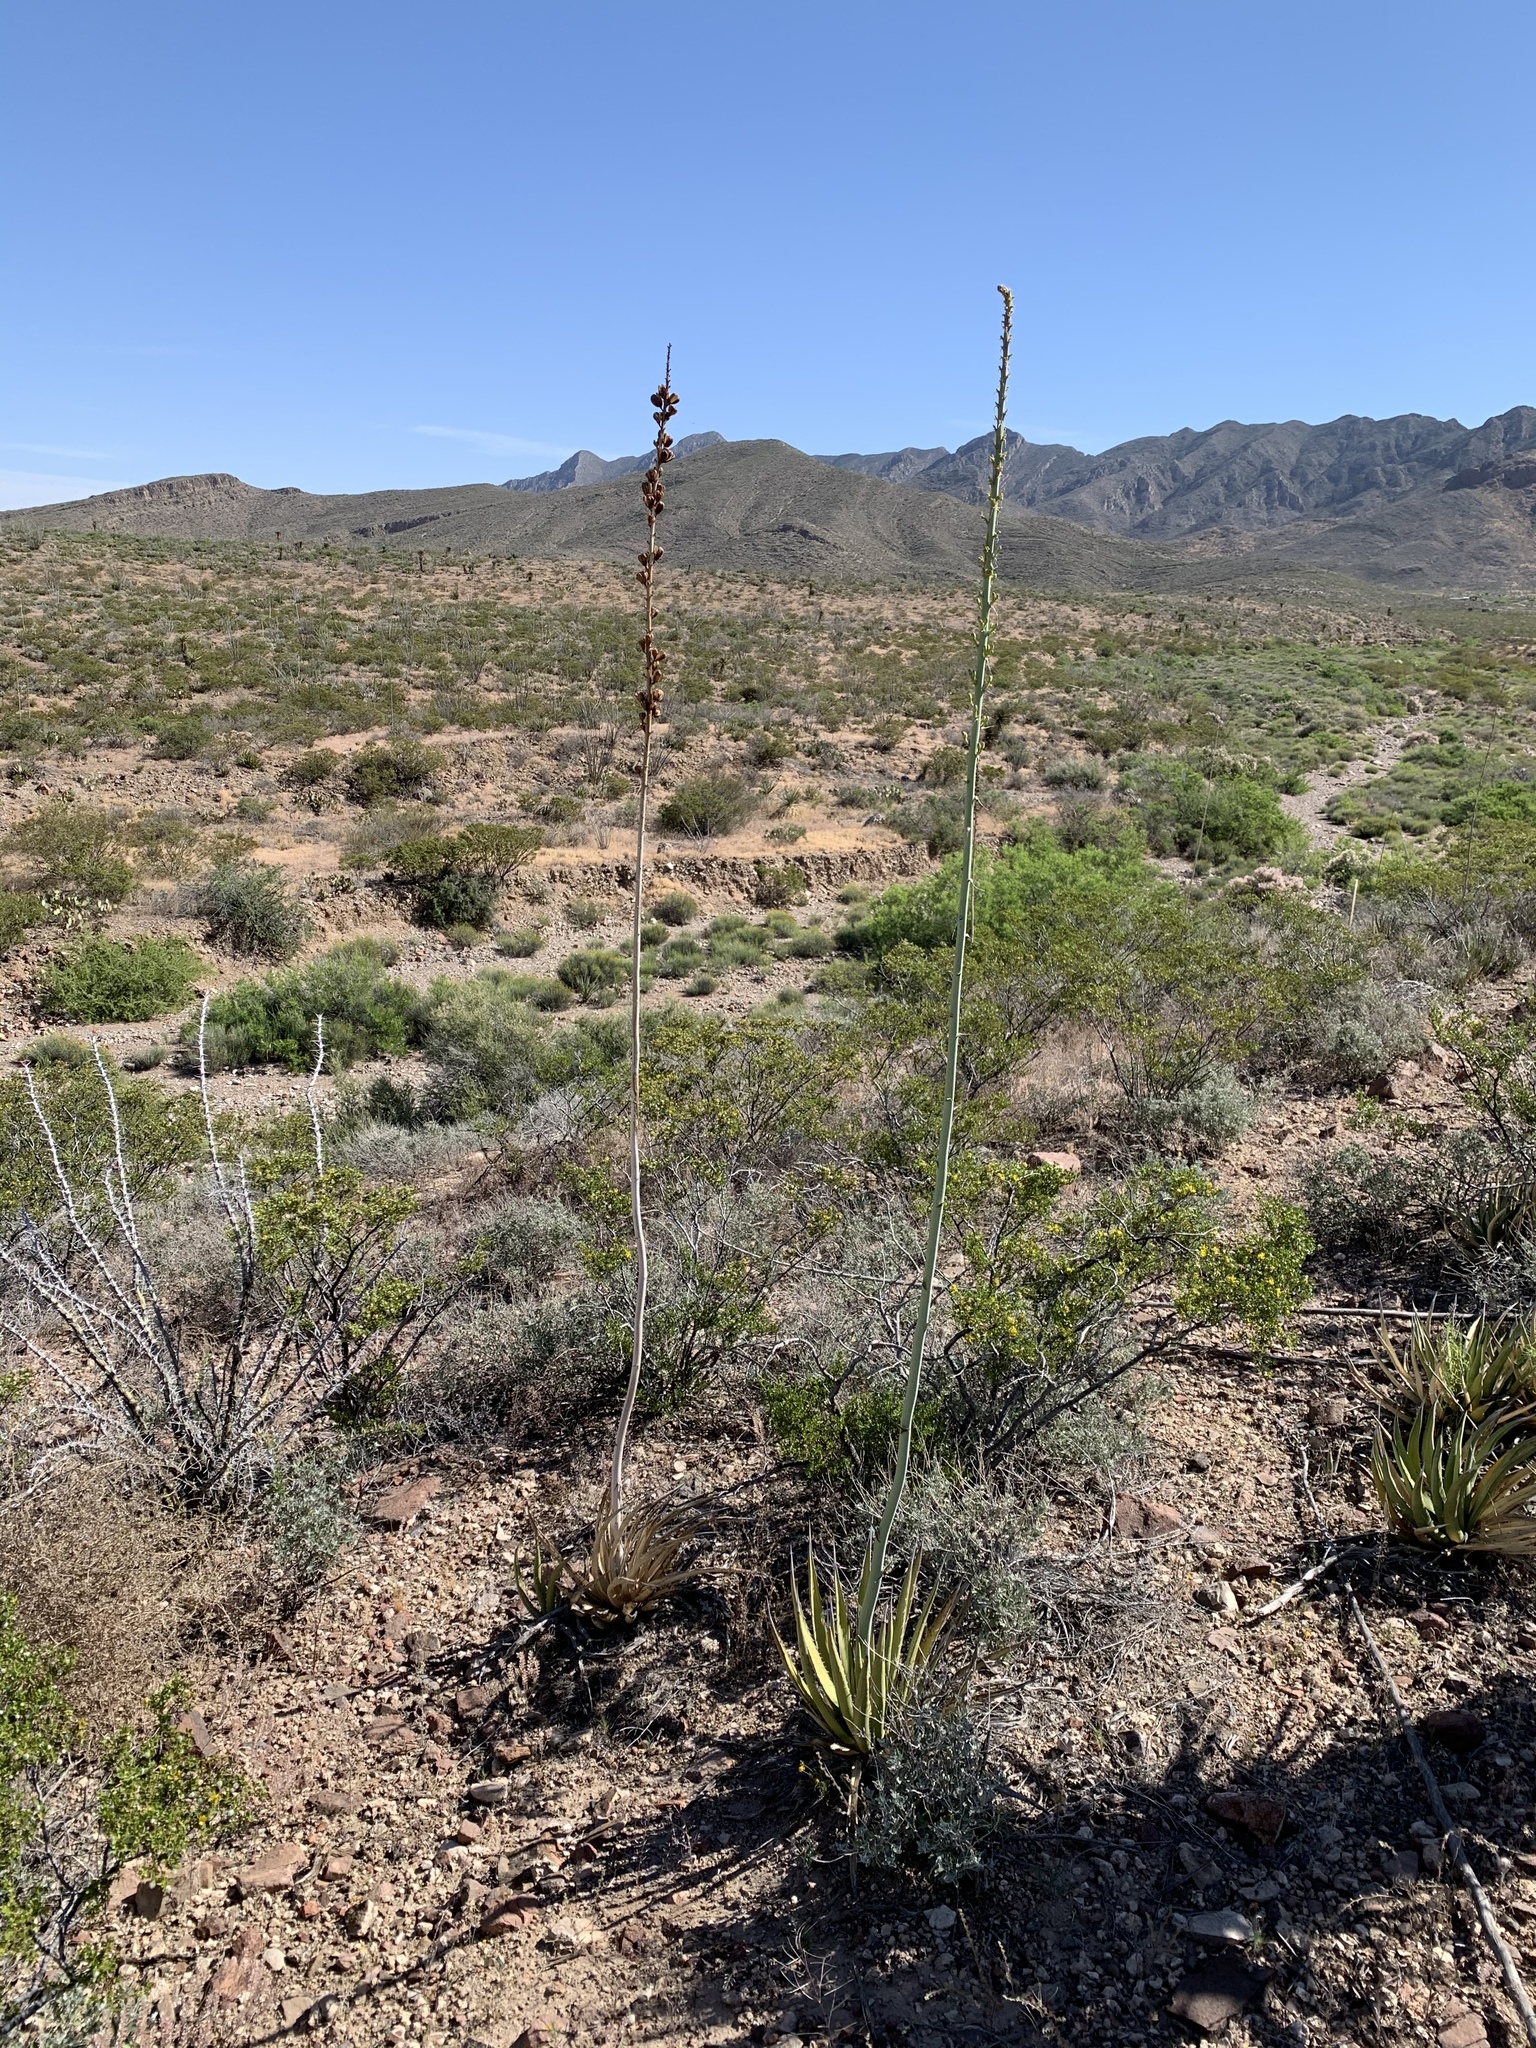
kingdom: Plantae
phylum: Tracheophyta
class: Liliopsida
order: Asparagales
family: Asparagaceae
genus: Agave
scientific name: Agave lechuguilla
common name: Lecheguilla agave
